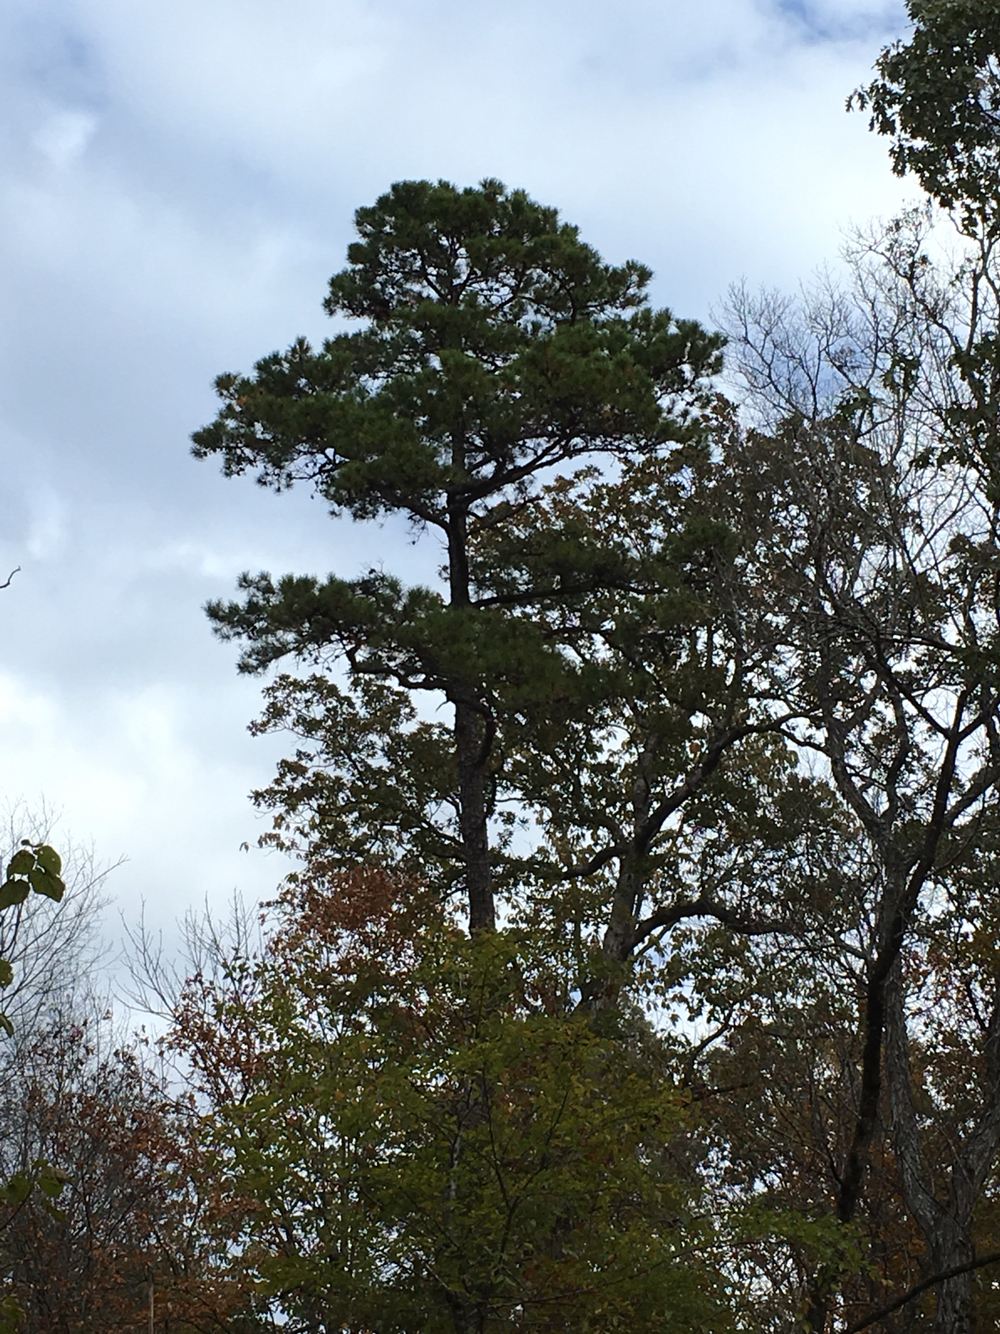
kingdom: Plantae
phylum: Tracheophyta
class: Pinopsida
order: Pinales
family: Pinaceae
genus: Pinus
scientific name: Pinus echinata
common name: Shortleaf pine
